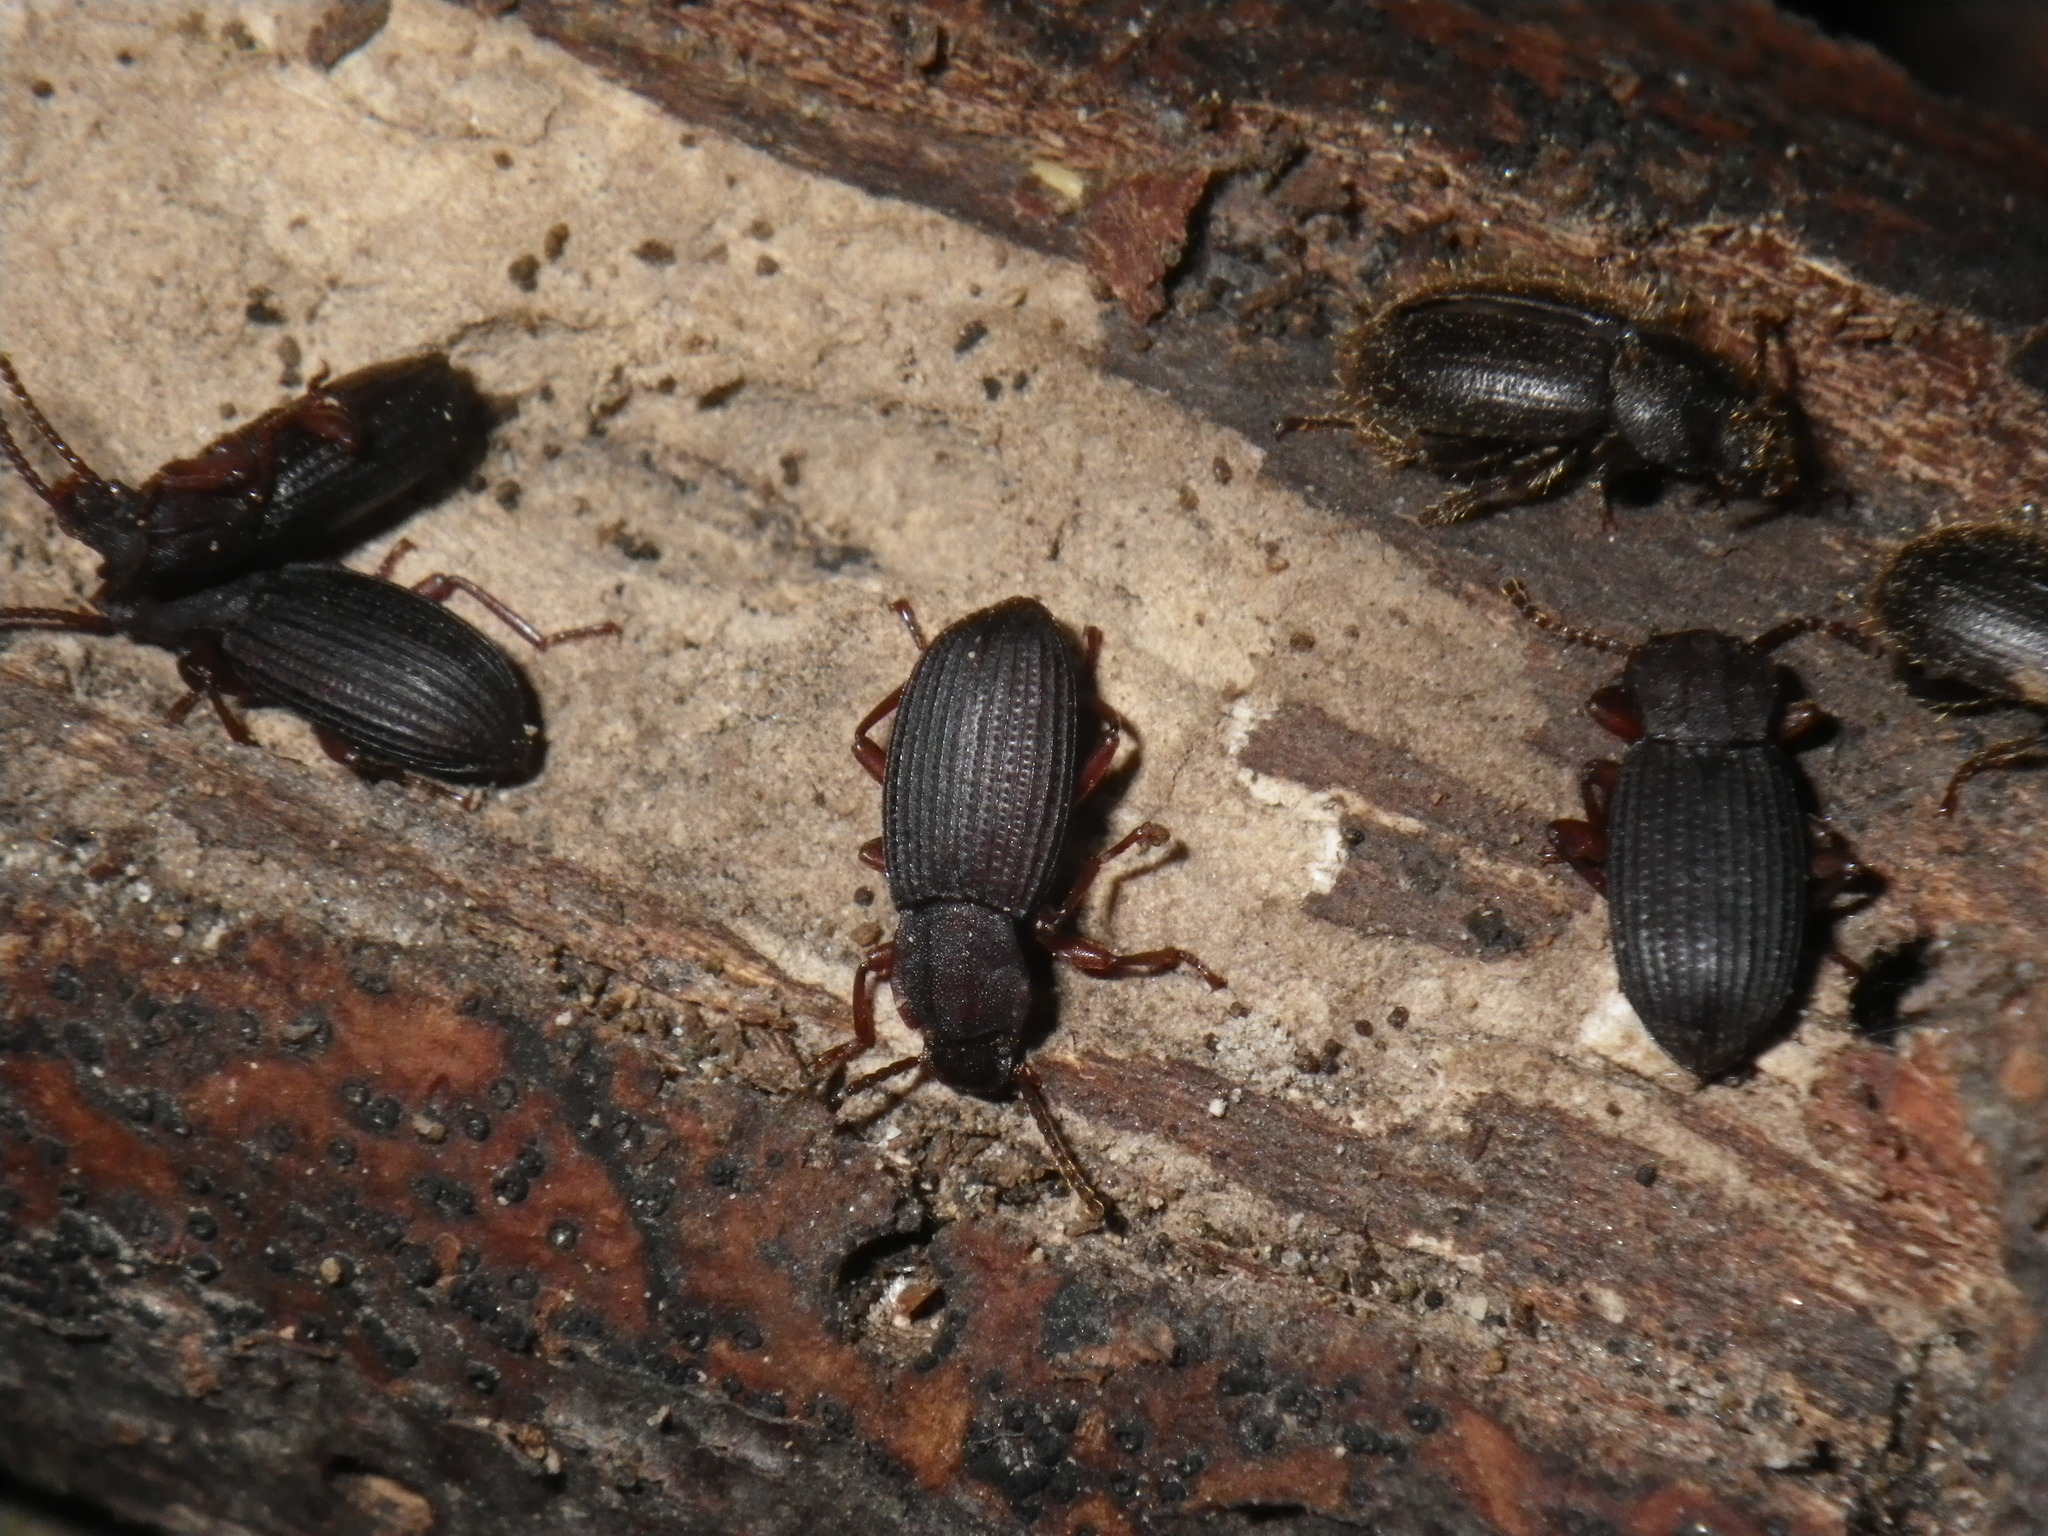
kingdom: Animalia
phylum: Arthropoda
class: Insecta
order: Coleoptera
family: Tenebrionidae
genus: Eulabis
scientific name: Eulabis bicarinata
